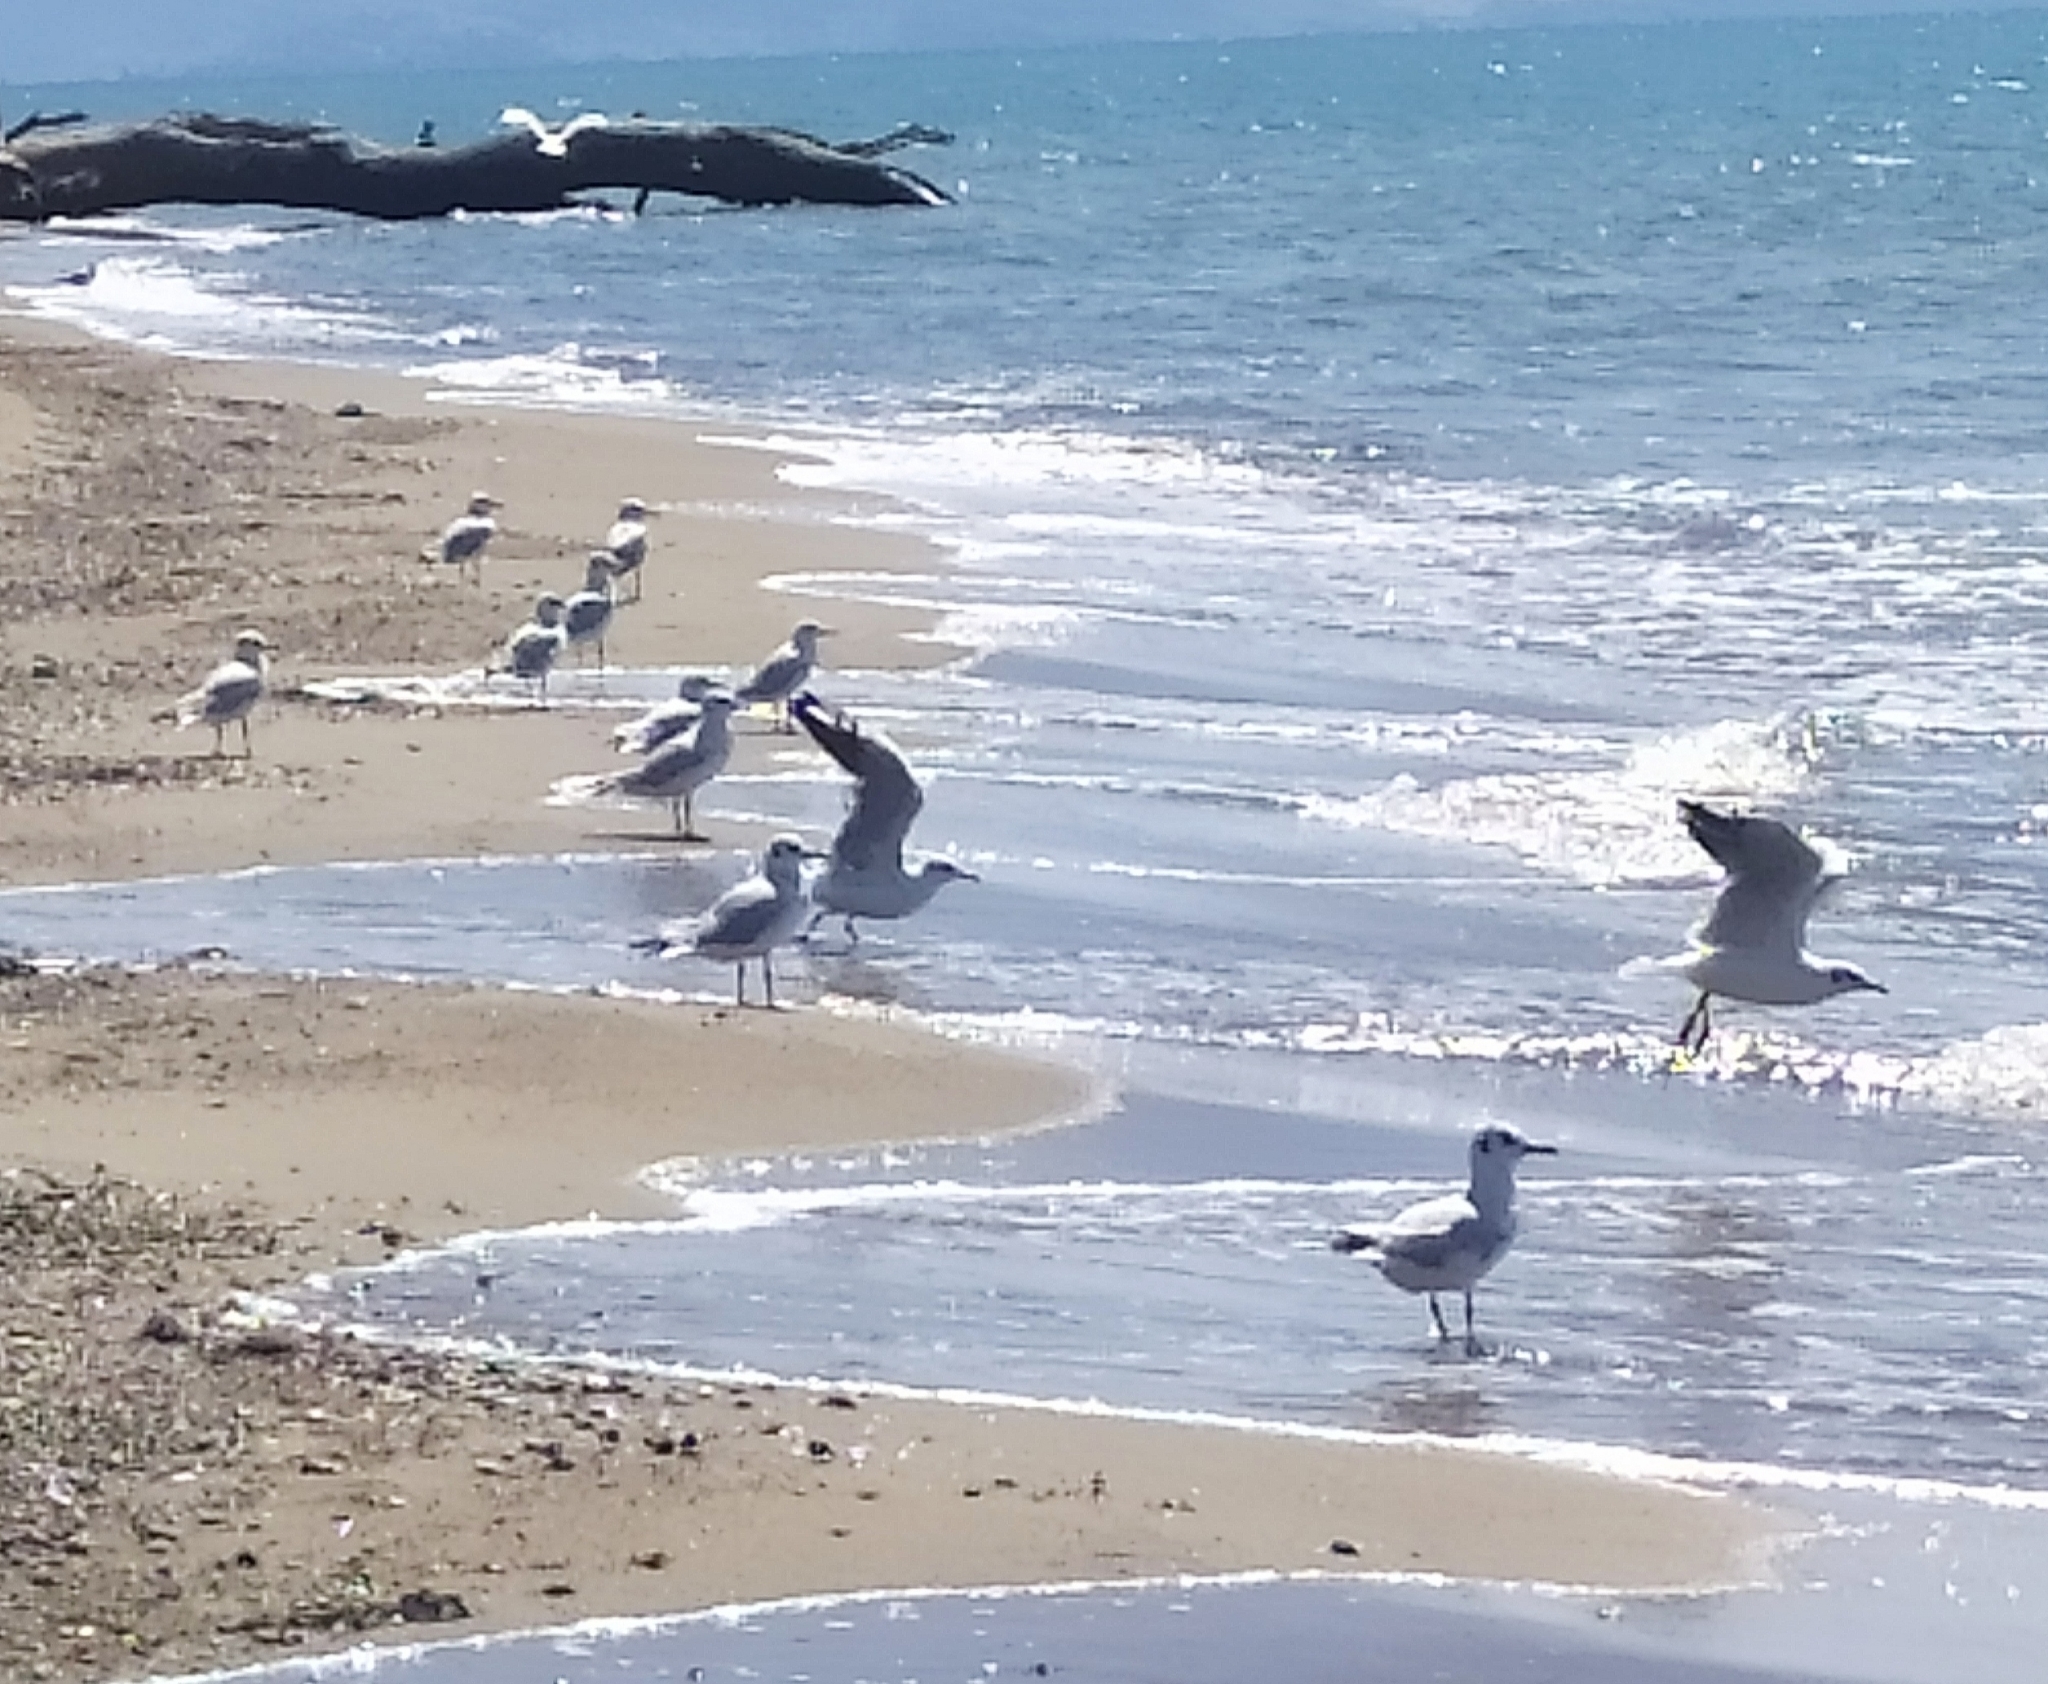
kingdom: Animalia
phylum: Chordata
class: Aves
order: Charadriiformes
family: Laridae
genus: Chroicocephalus
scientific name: Chroicocephalus ridibundus
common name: Black-headed gull
